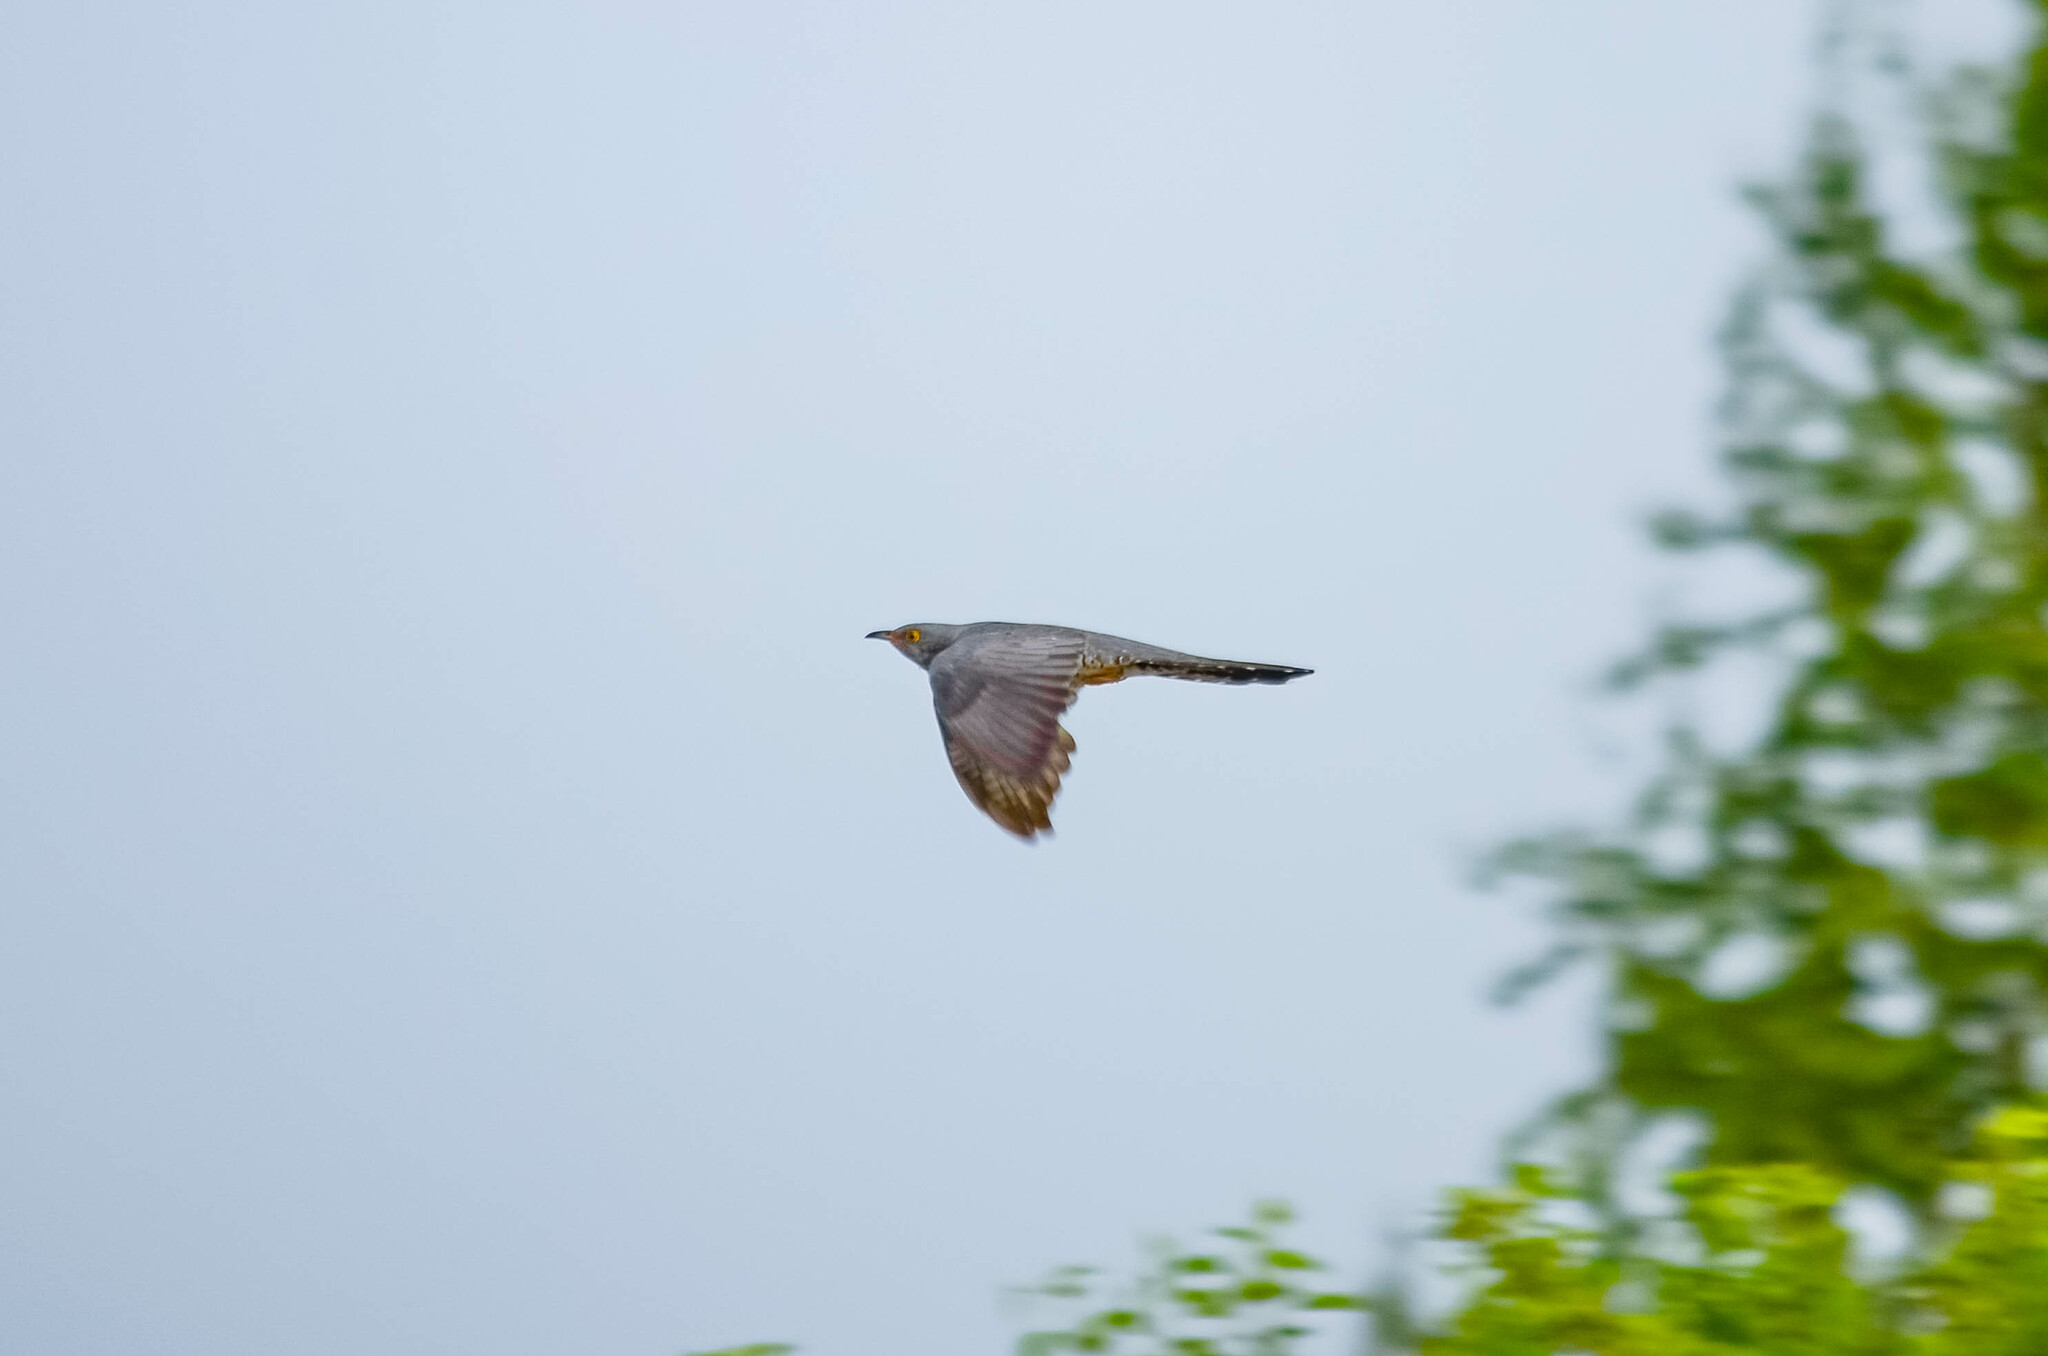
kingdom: Animalia
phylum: Chordata
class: Aves
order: Cuculiformes
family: Cuculidae
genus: Cuculus
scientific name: Cuculus canorus
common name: Common cuckoo
